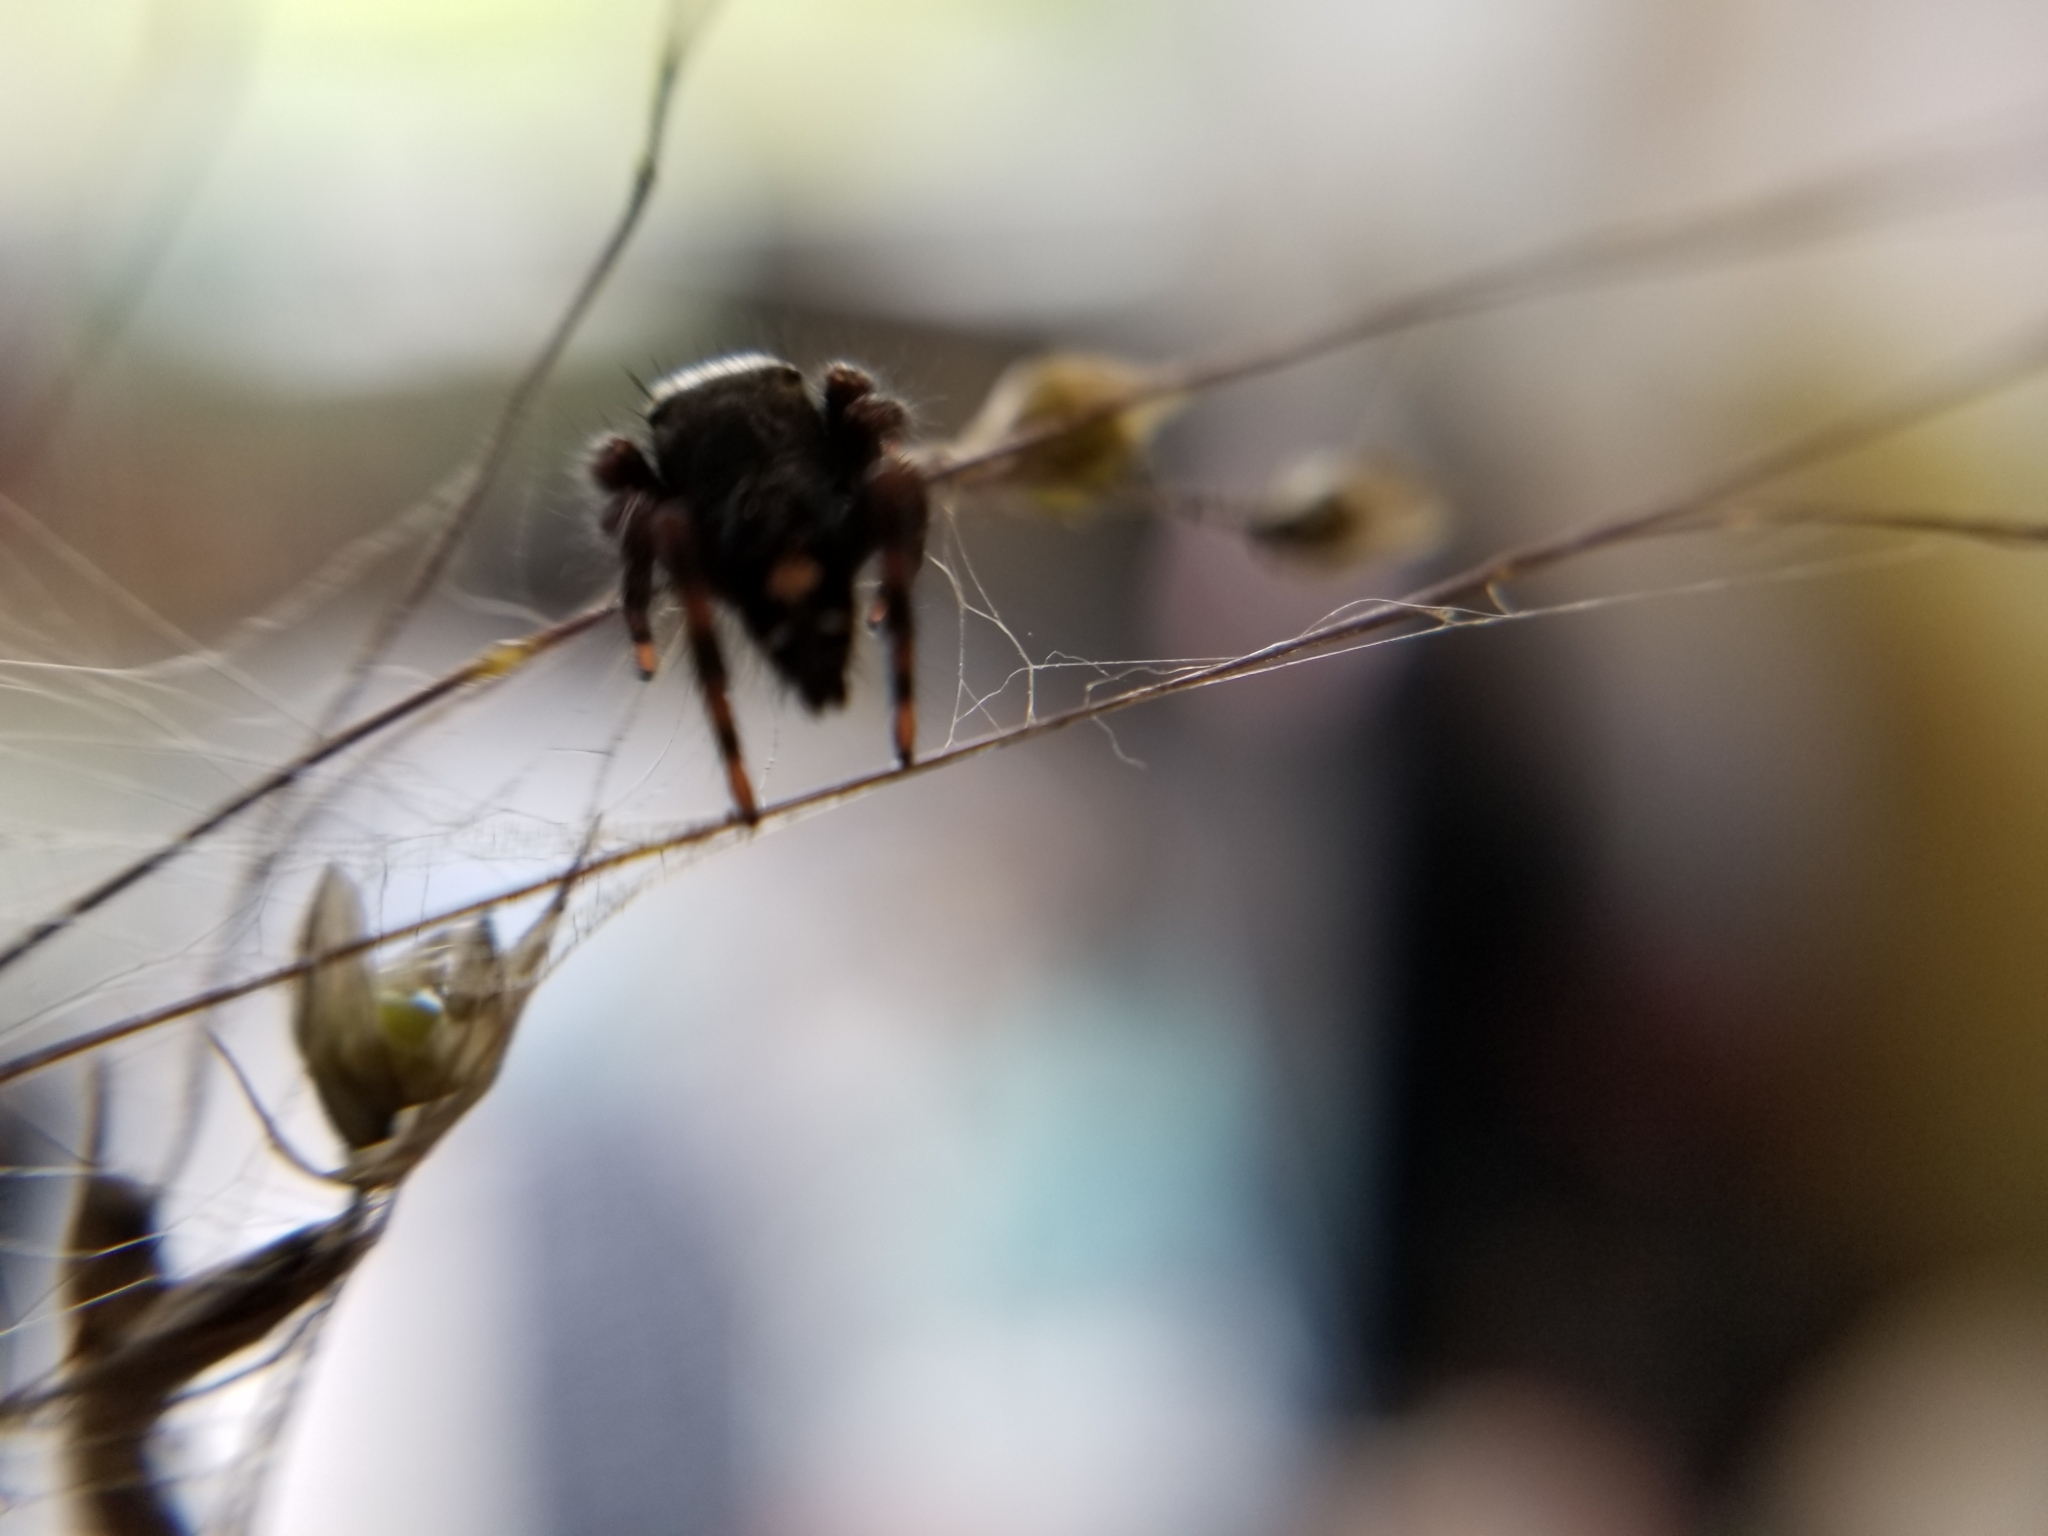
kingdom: Animalia
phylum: Arthropoda
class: Arachnida
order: Araneae
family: Salticidae
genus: Phidippus
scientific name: Phidippus audax
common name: Bold jumper
